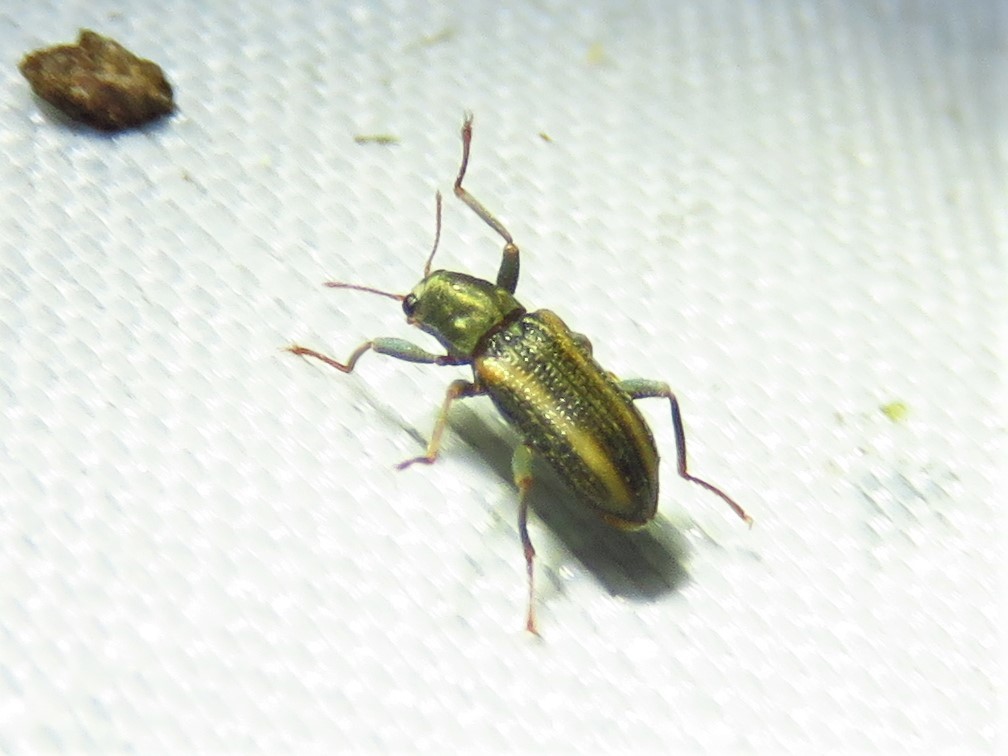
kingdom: Animalia
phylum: Arthropoda
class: Insecta
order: Coleoptera
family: Elmidae
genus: Stenelmis
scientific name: Stenelmis cheryl
